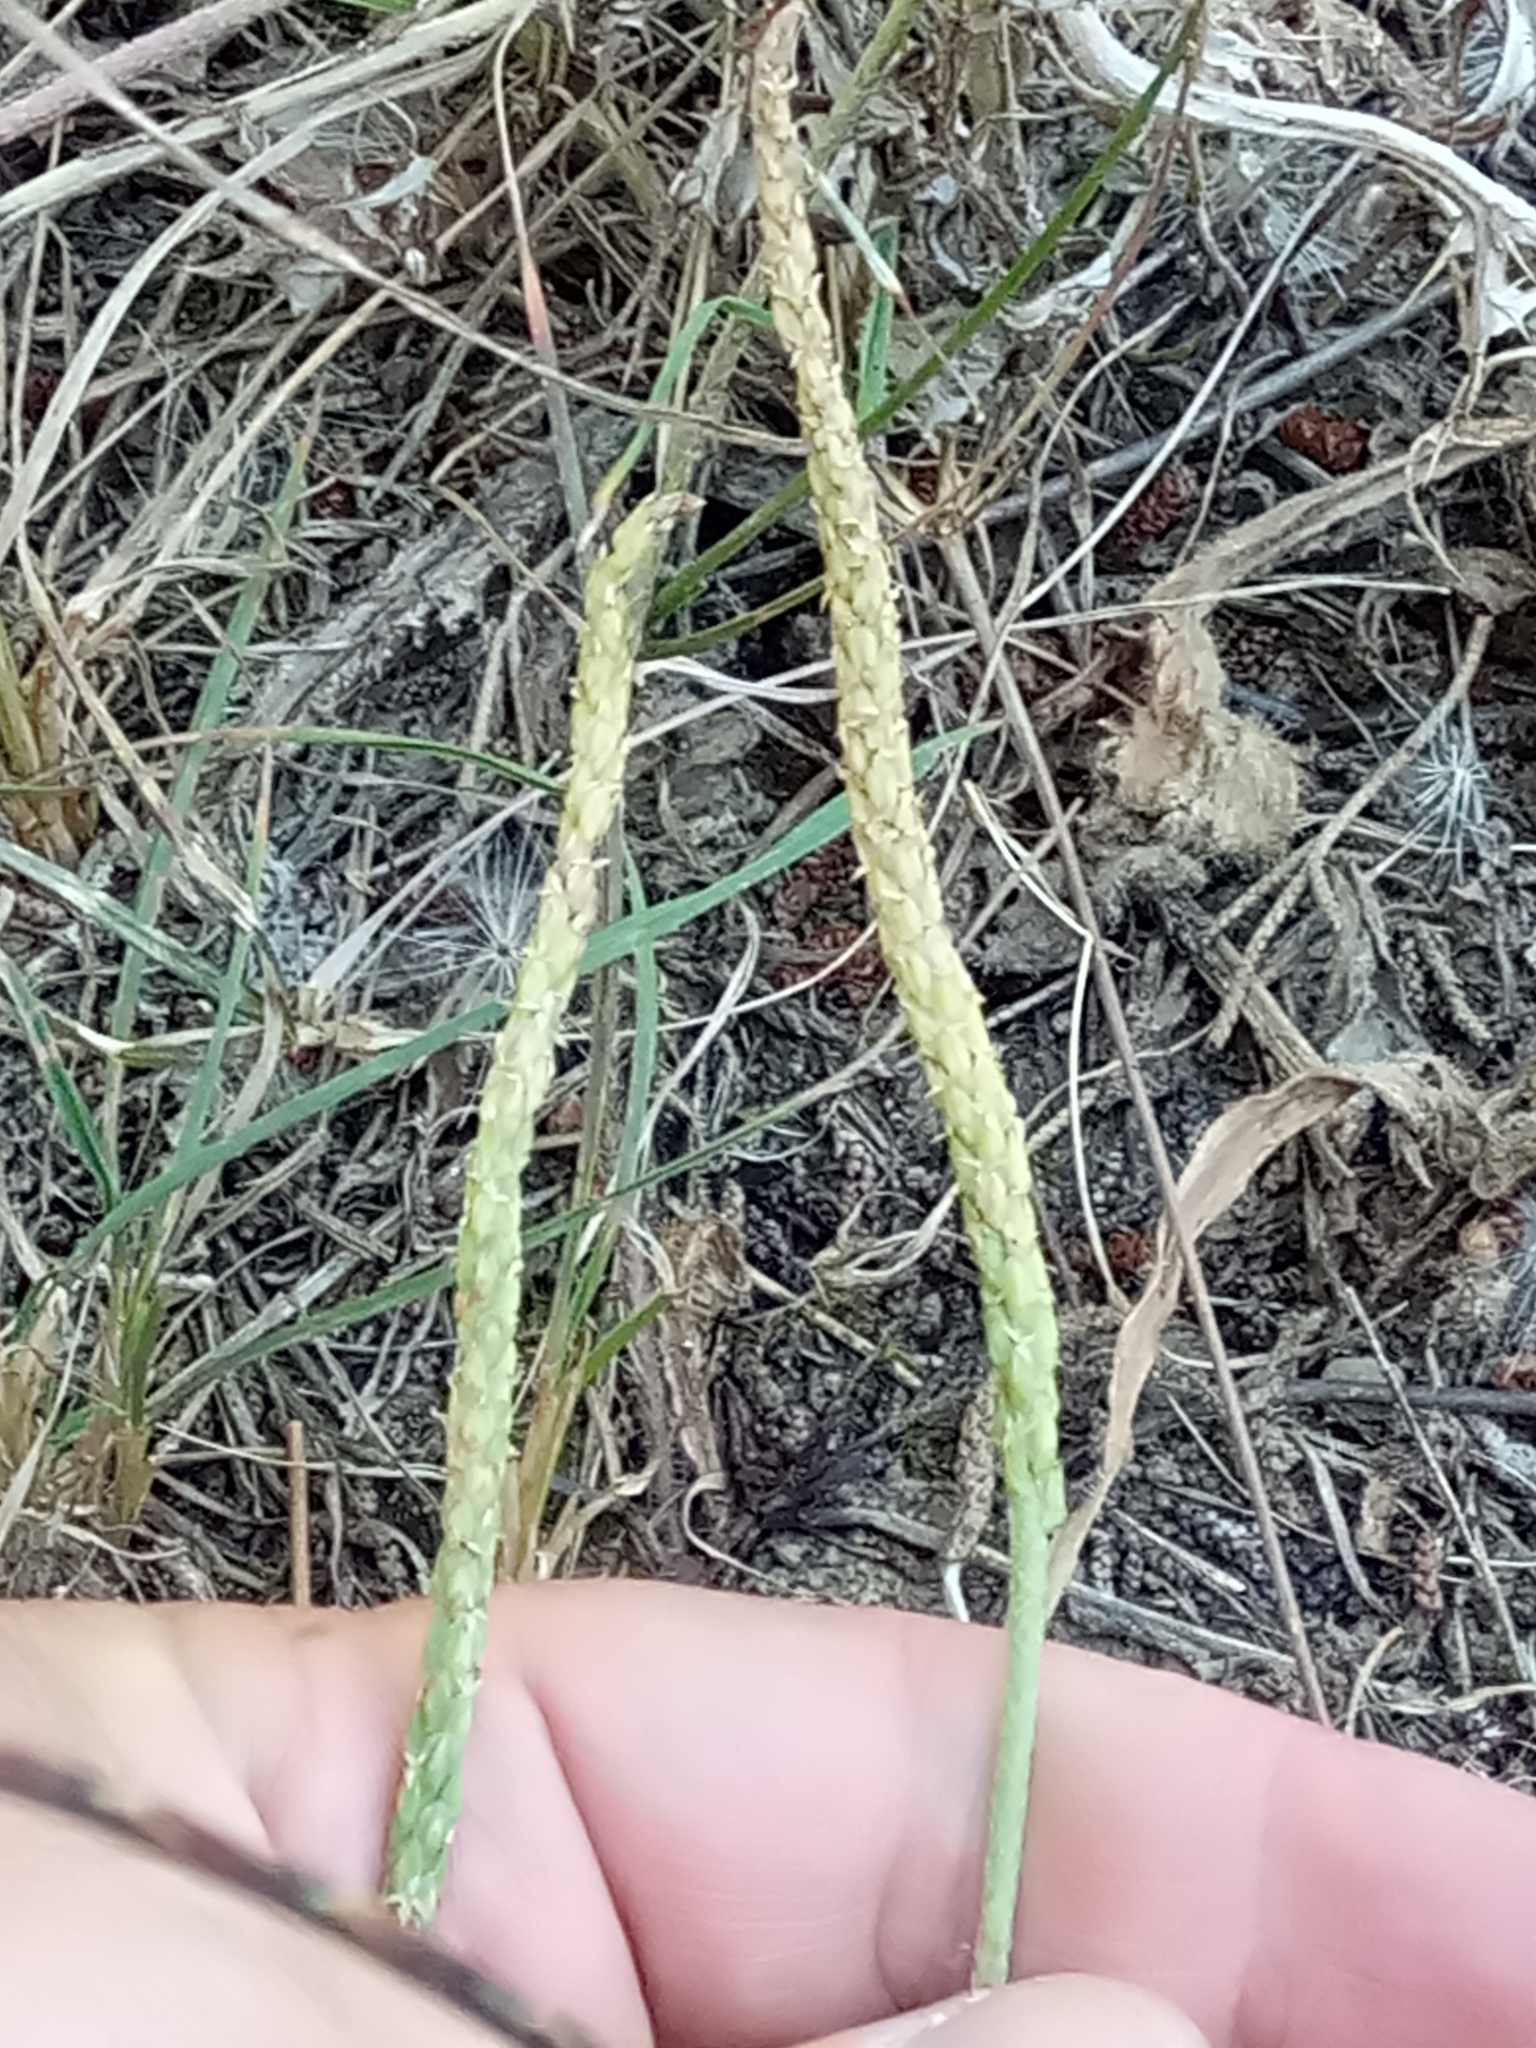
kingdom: Plantae
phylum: Tracheophyta
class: Magnoliopsida
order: Lamiales
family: Plantaginaceae
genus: Plantago
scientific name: Plantago serraria
